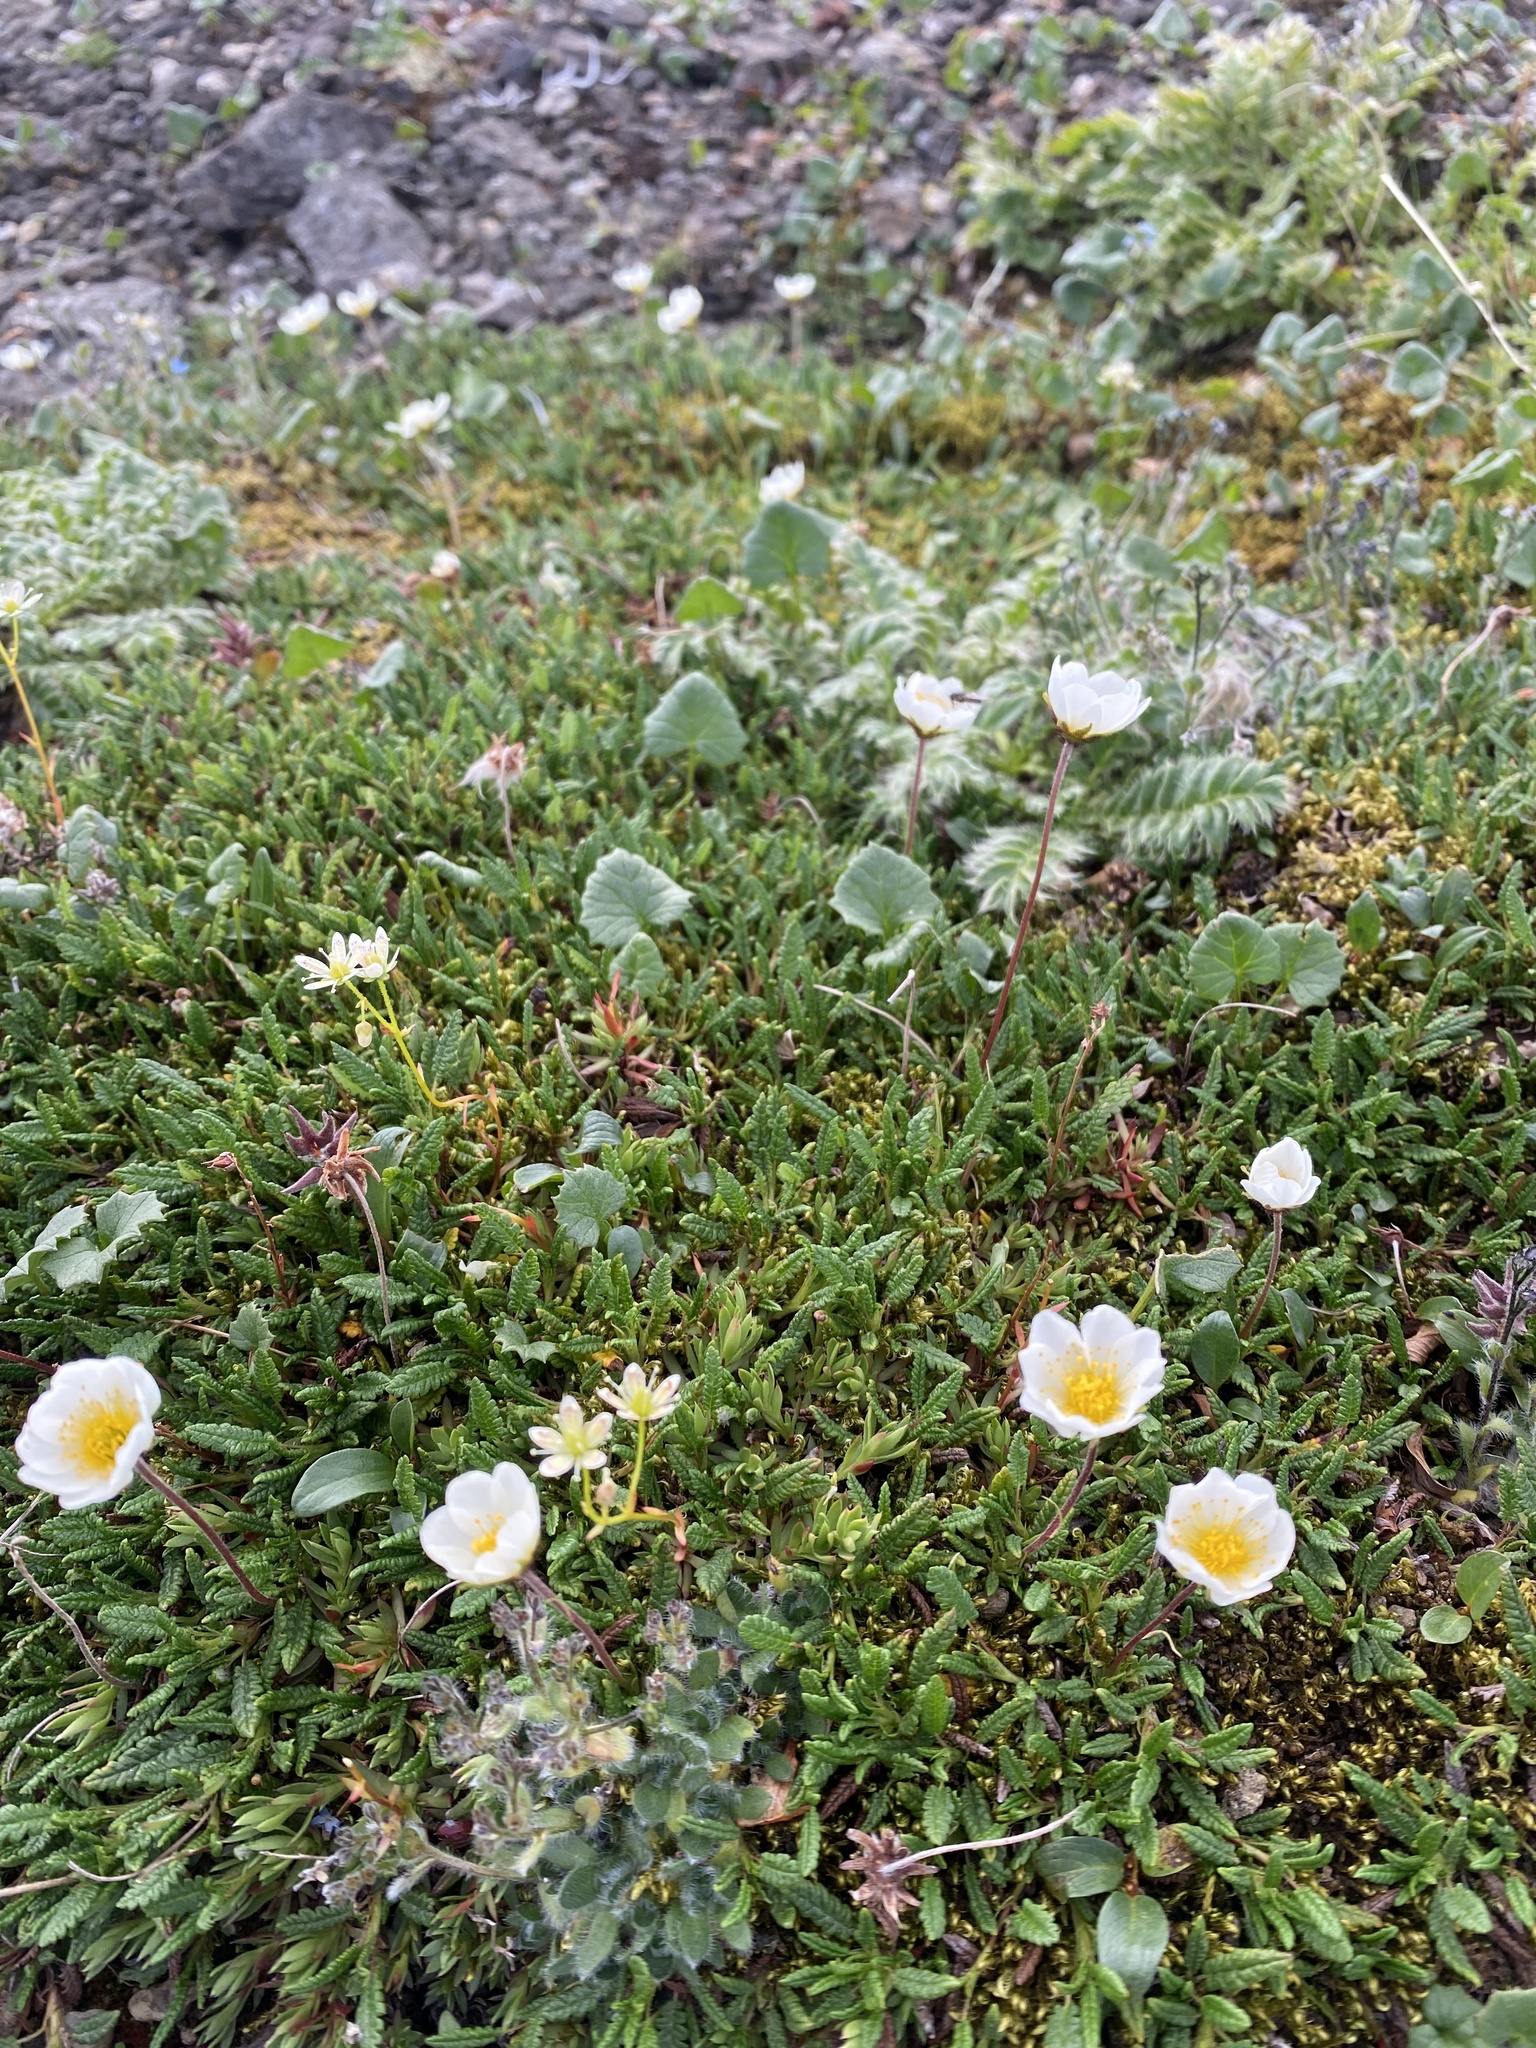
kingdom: Plantae
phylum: Tracheophyta
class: Magnoliopsida
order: Asterales
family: Asteraceae
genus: Endocellion
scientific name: Endocellion glaciale
